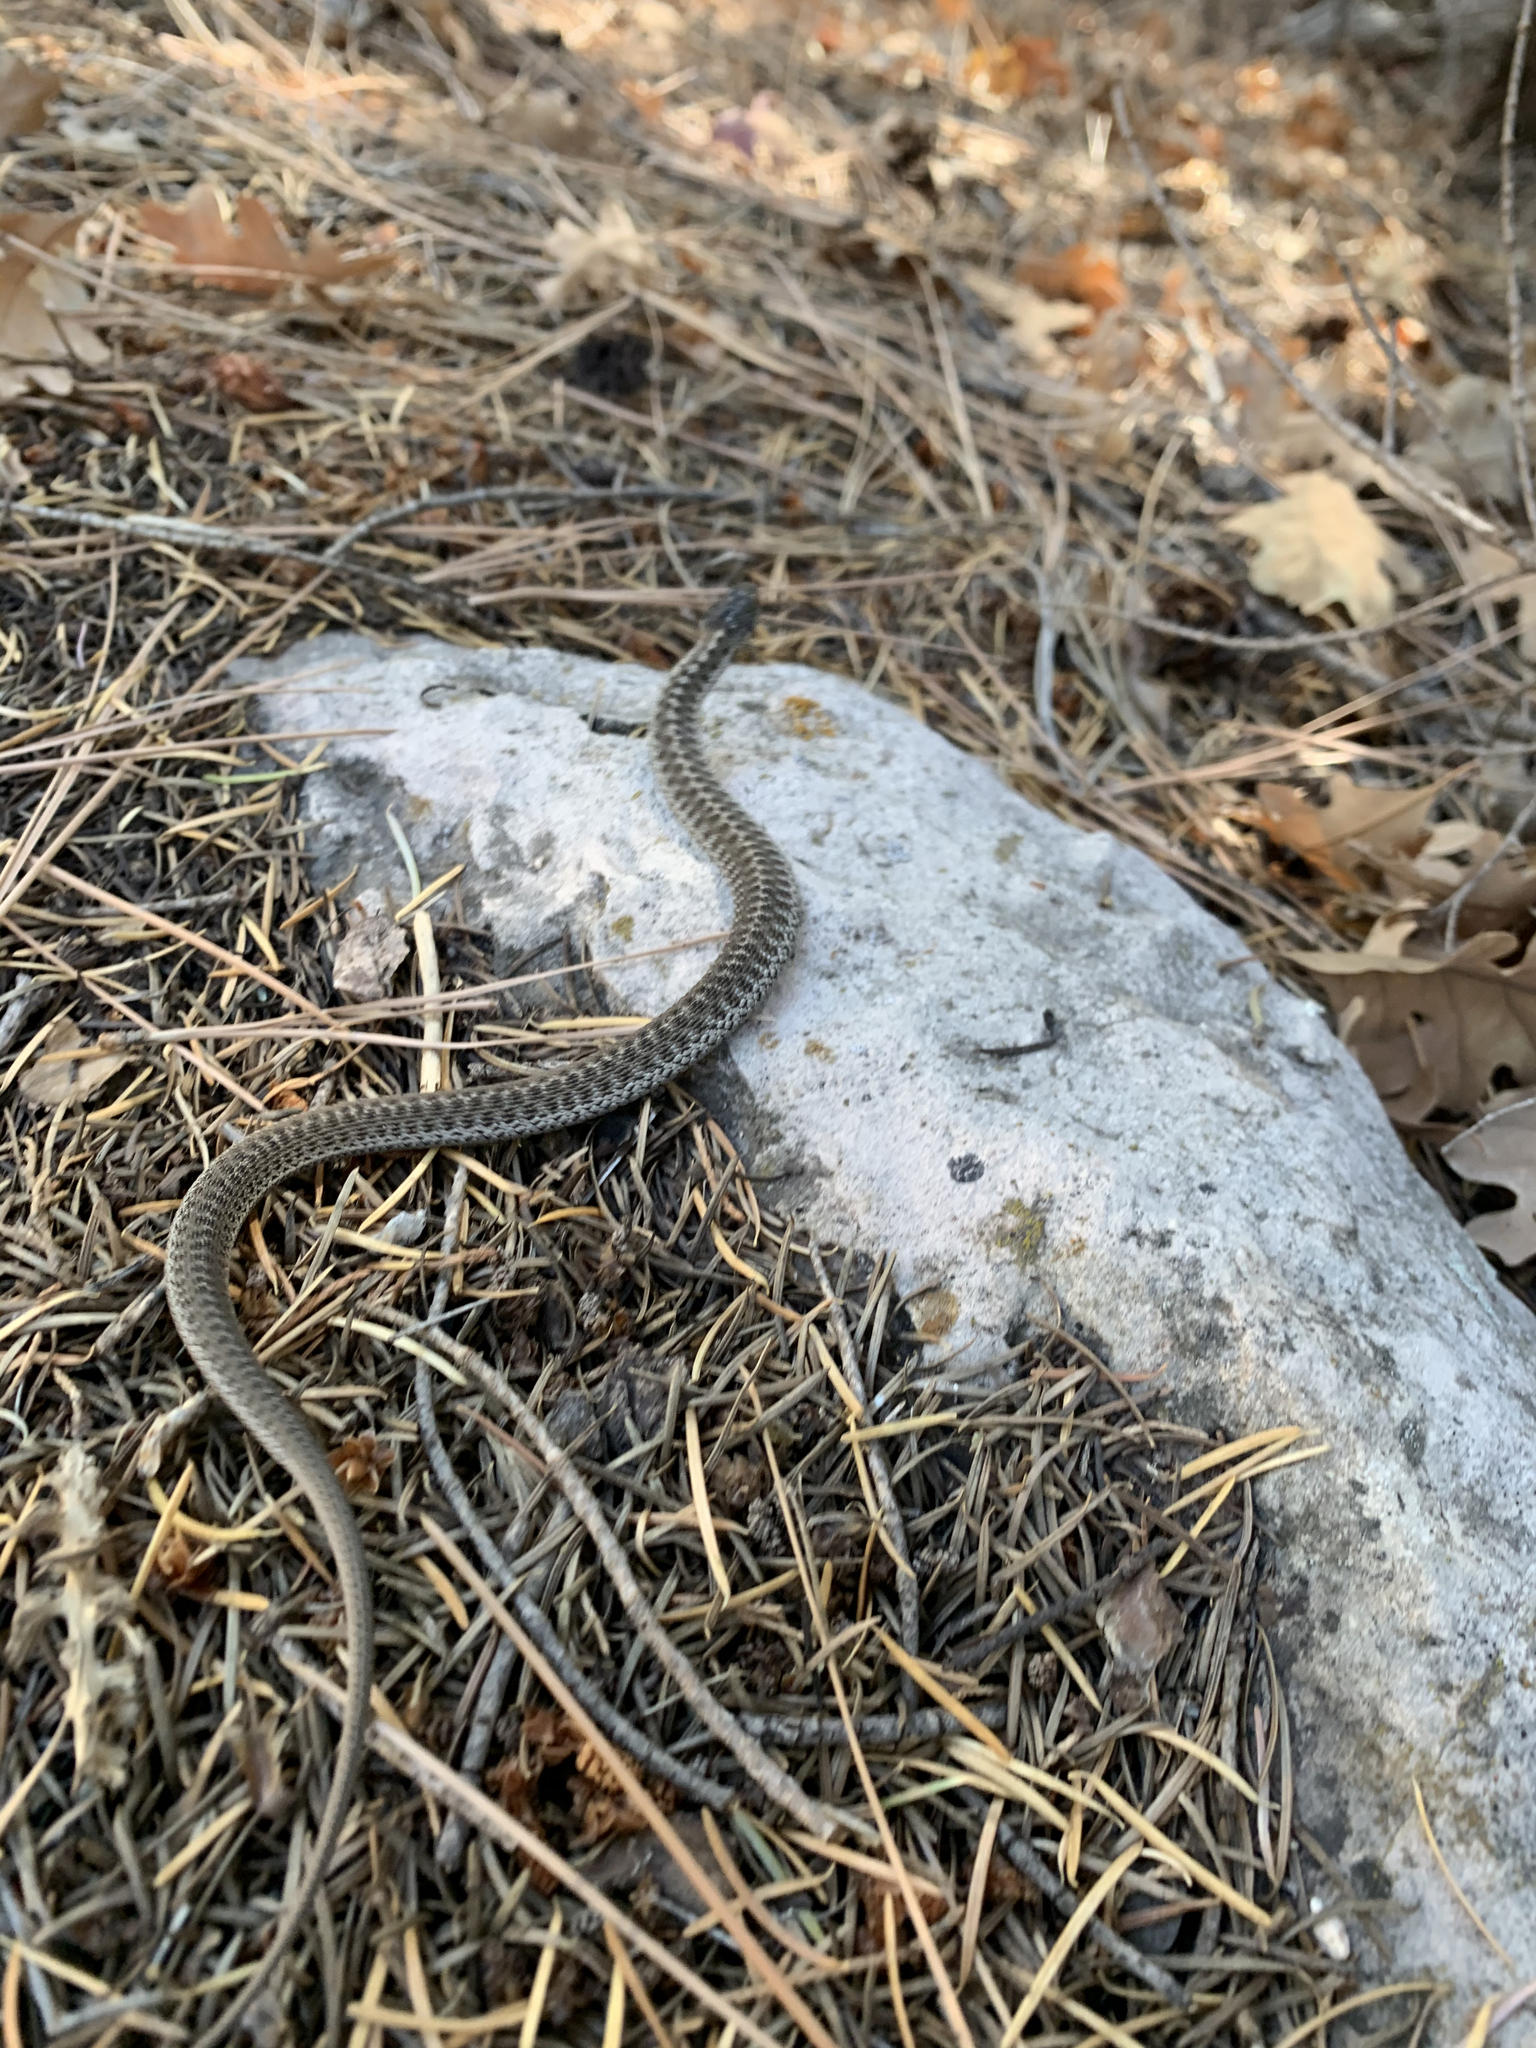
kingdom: Animalia
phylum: Chordata
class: Squamata
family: Colubridae
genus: Thamnophis
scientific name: Thamnophis elegans
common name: Western terrestrial garter snake
